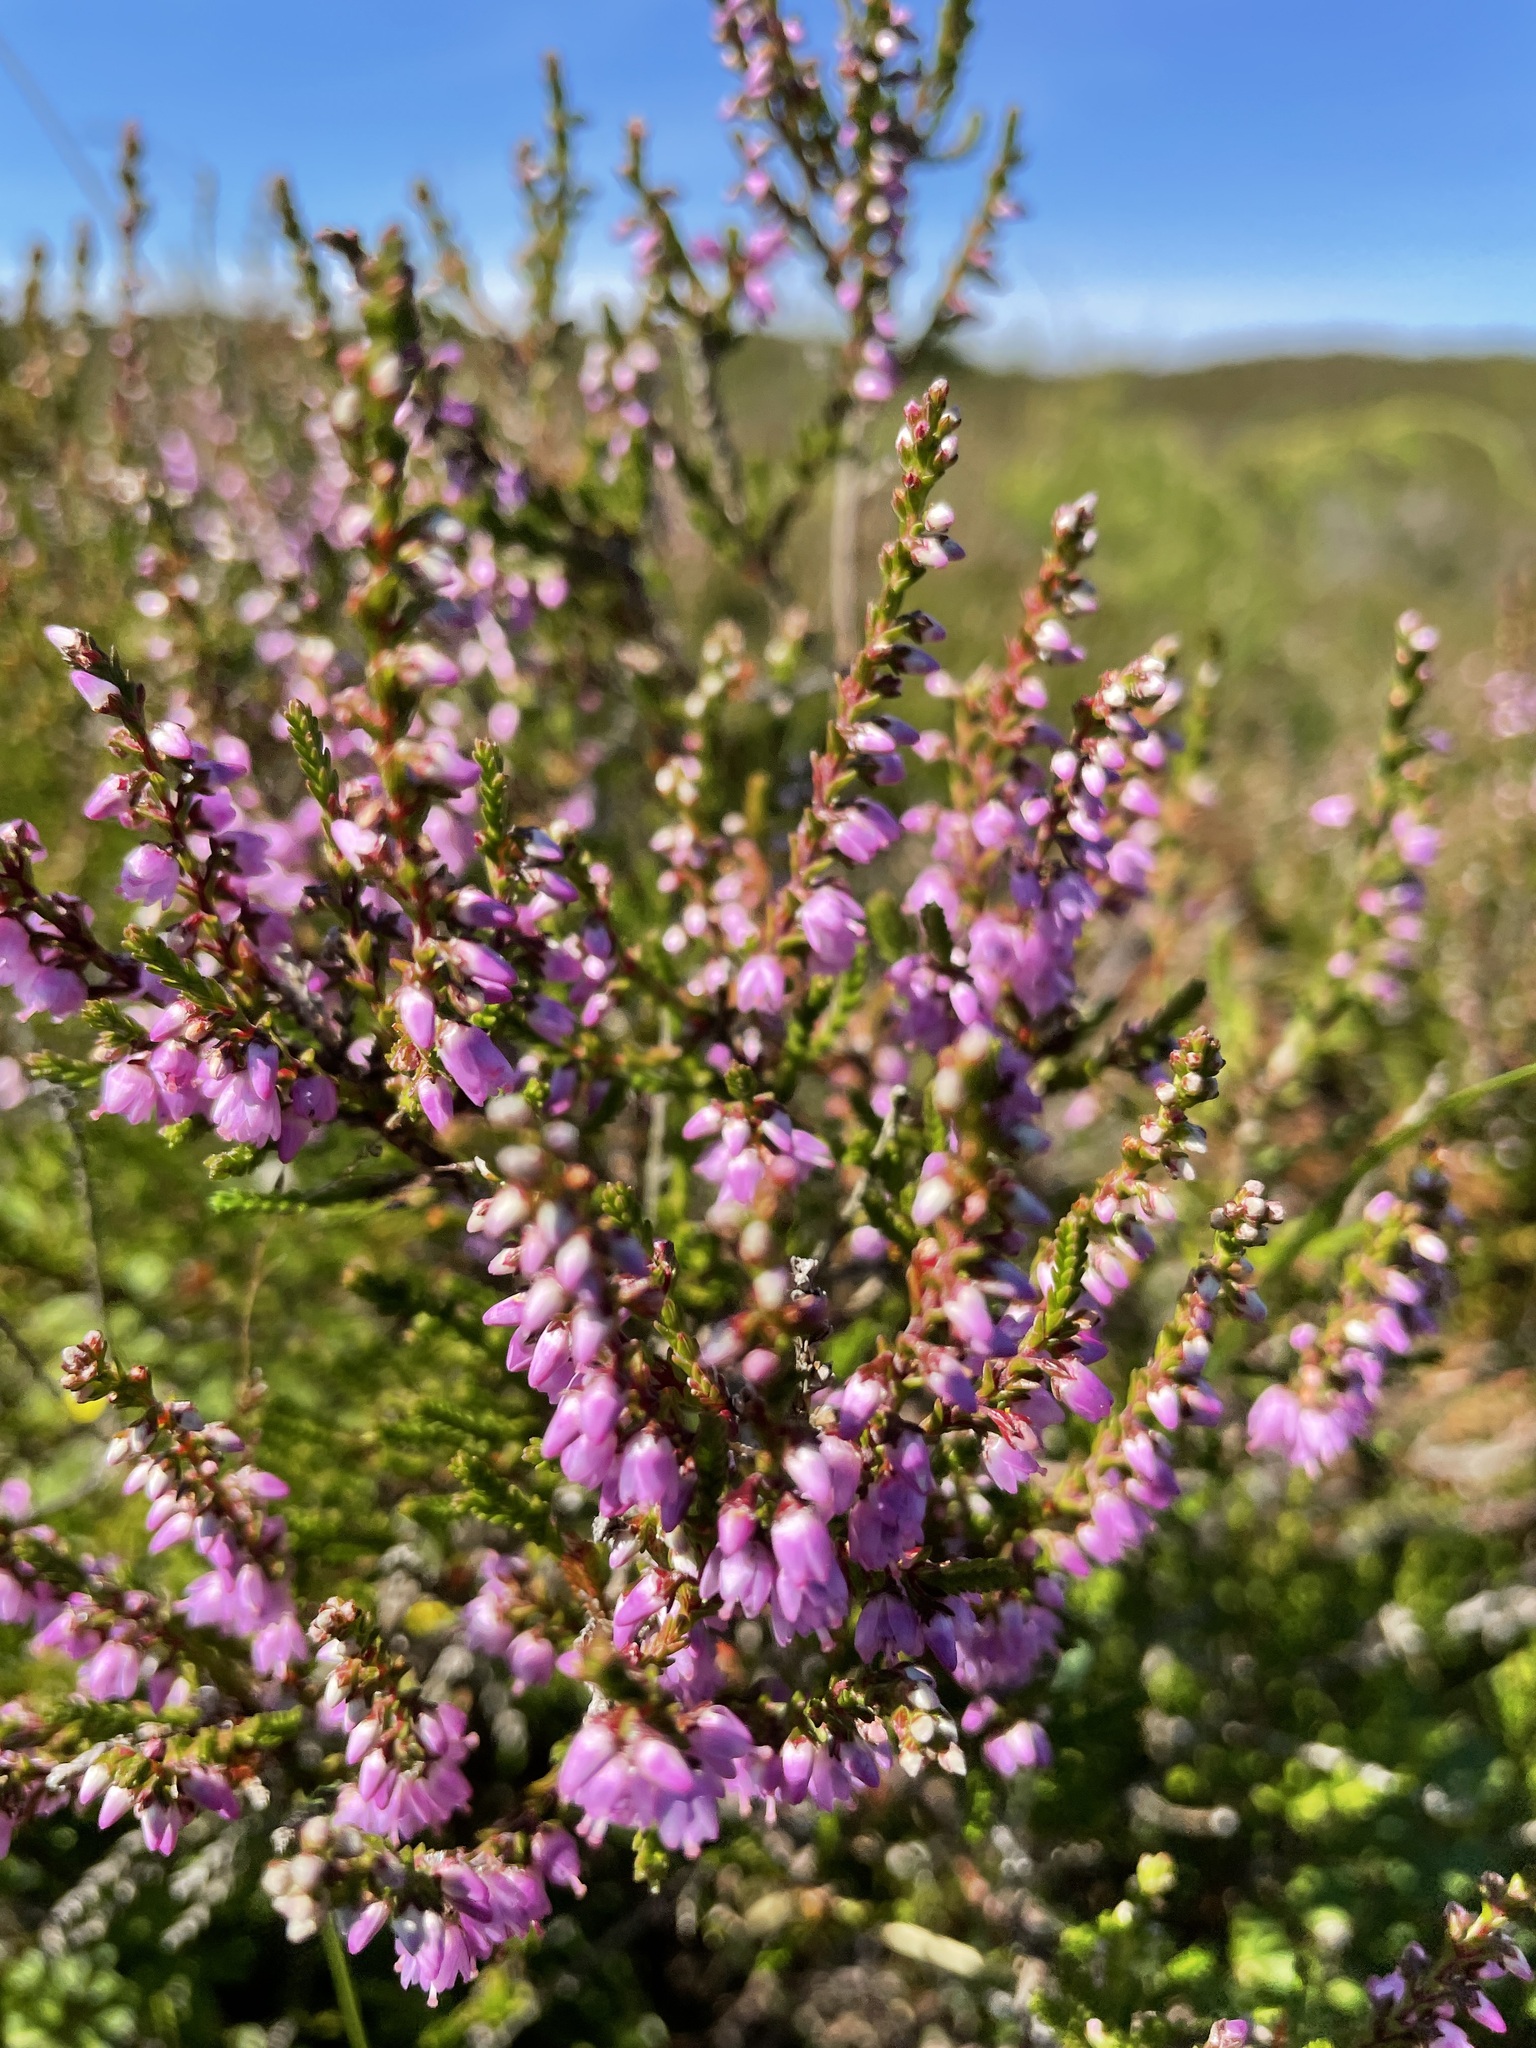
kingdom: Plantae
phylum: Tracheophyta
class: Magnoliopsida
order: Ericales
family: Ericaceae
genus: Calluna
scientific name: Calluna vulgaris
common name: Heather
